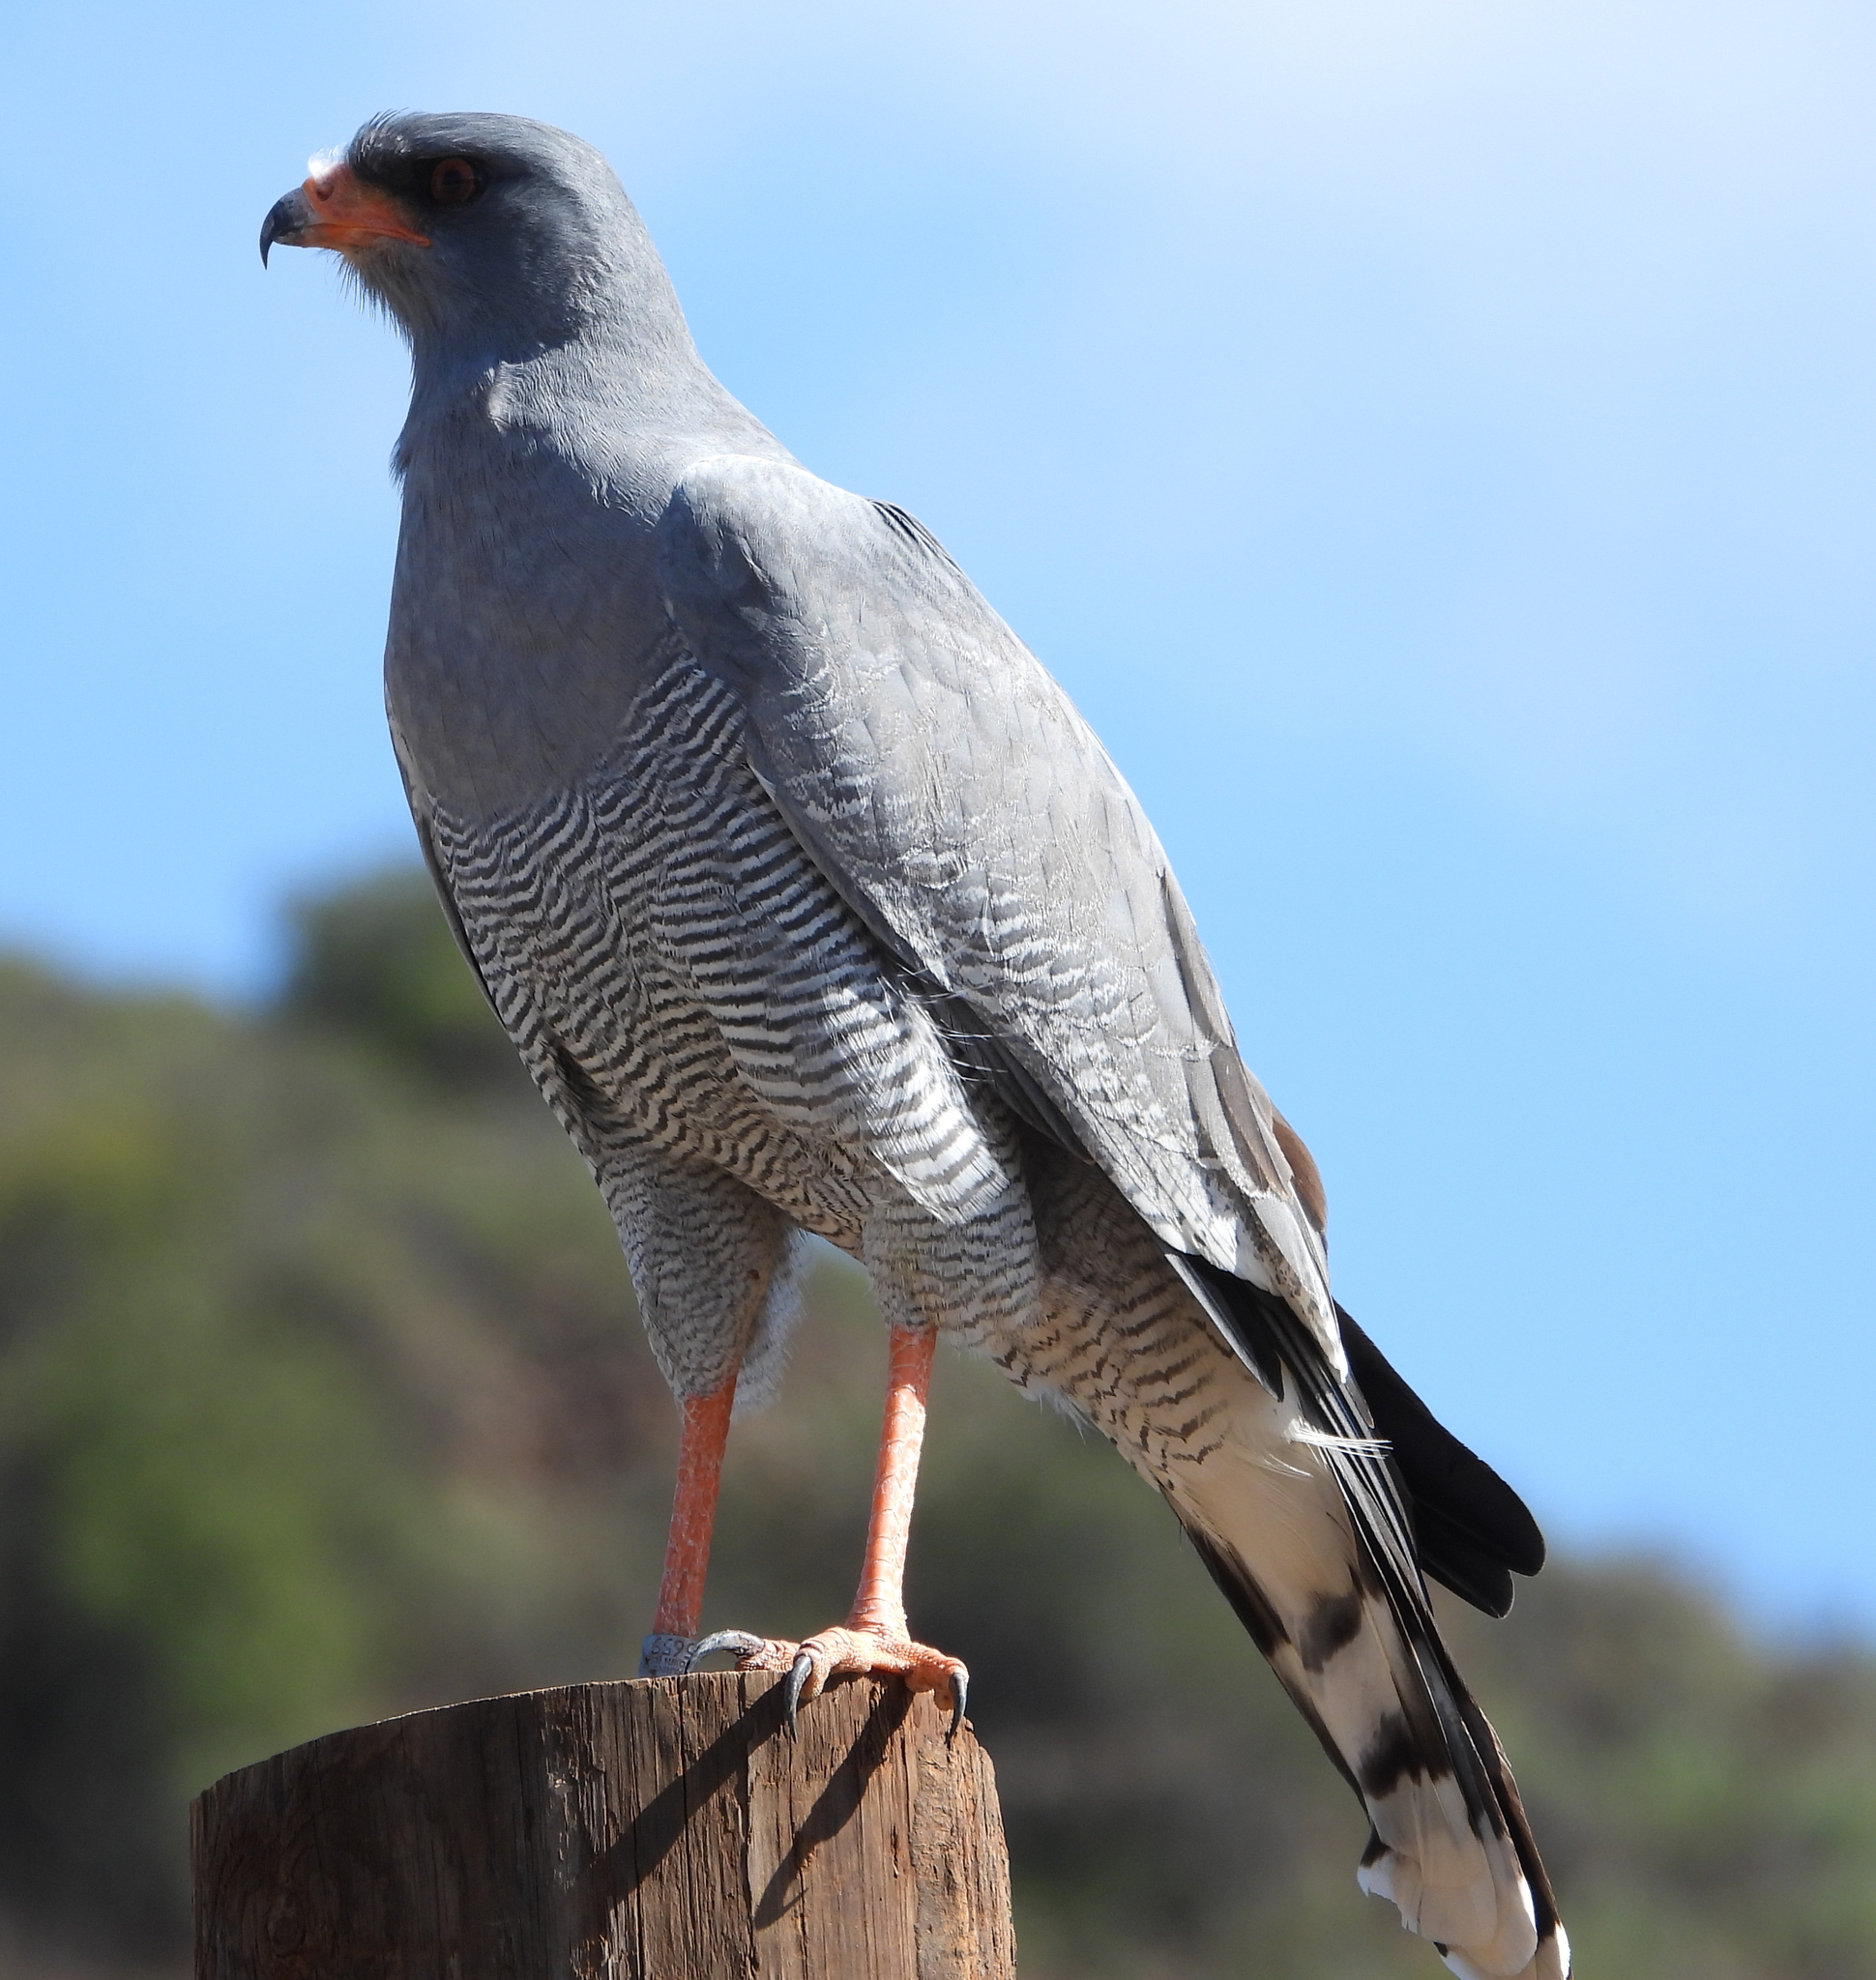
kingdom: Animalia
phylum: Chordata
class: Aves
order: Accipitriformes
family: Accipitridae
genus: Melierax
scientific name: Melierax canorus
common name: Pale chanting-goshawk
